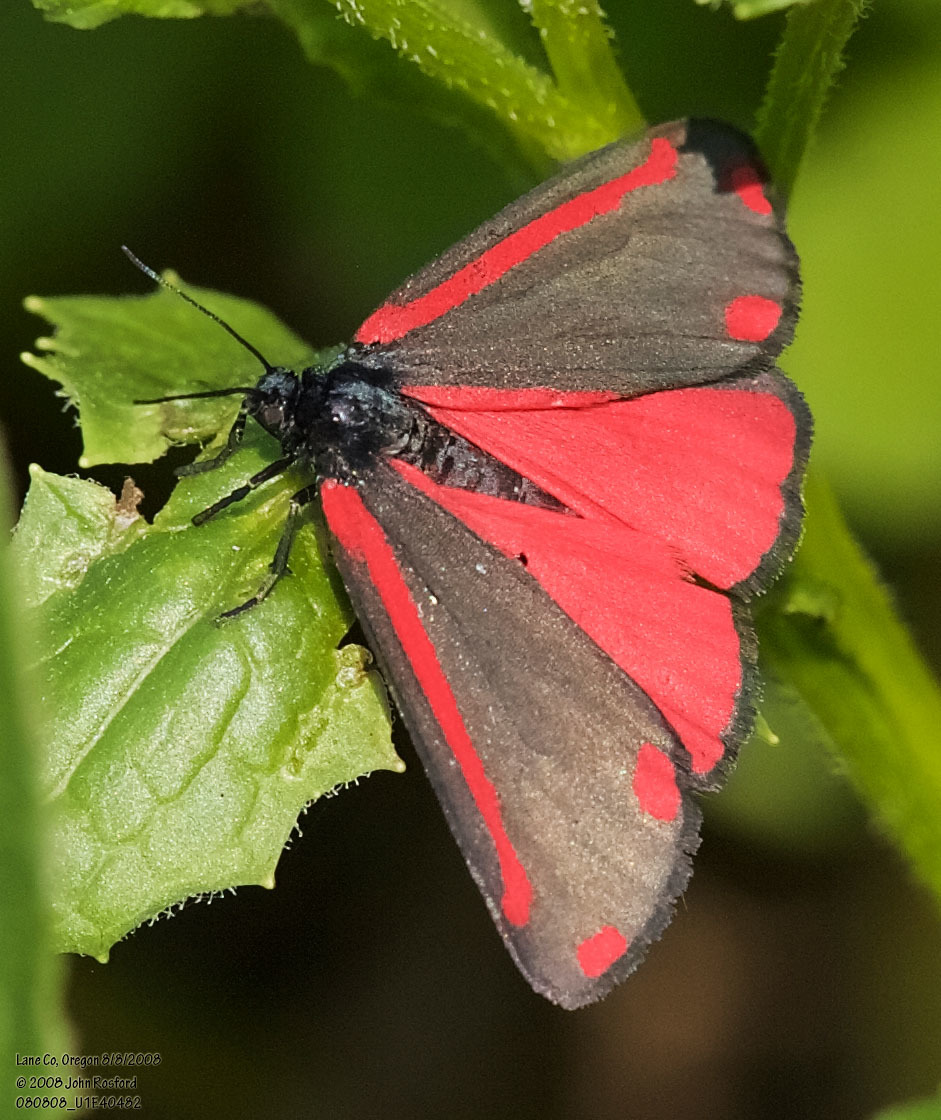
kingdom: Animalia
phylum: Arthropoda
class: Insecta
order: Lepidoptera
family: Erebidae
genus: Tyria
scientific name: Tyria jacobaeae
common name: Cinnabar
